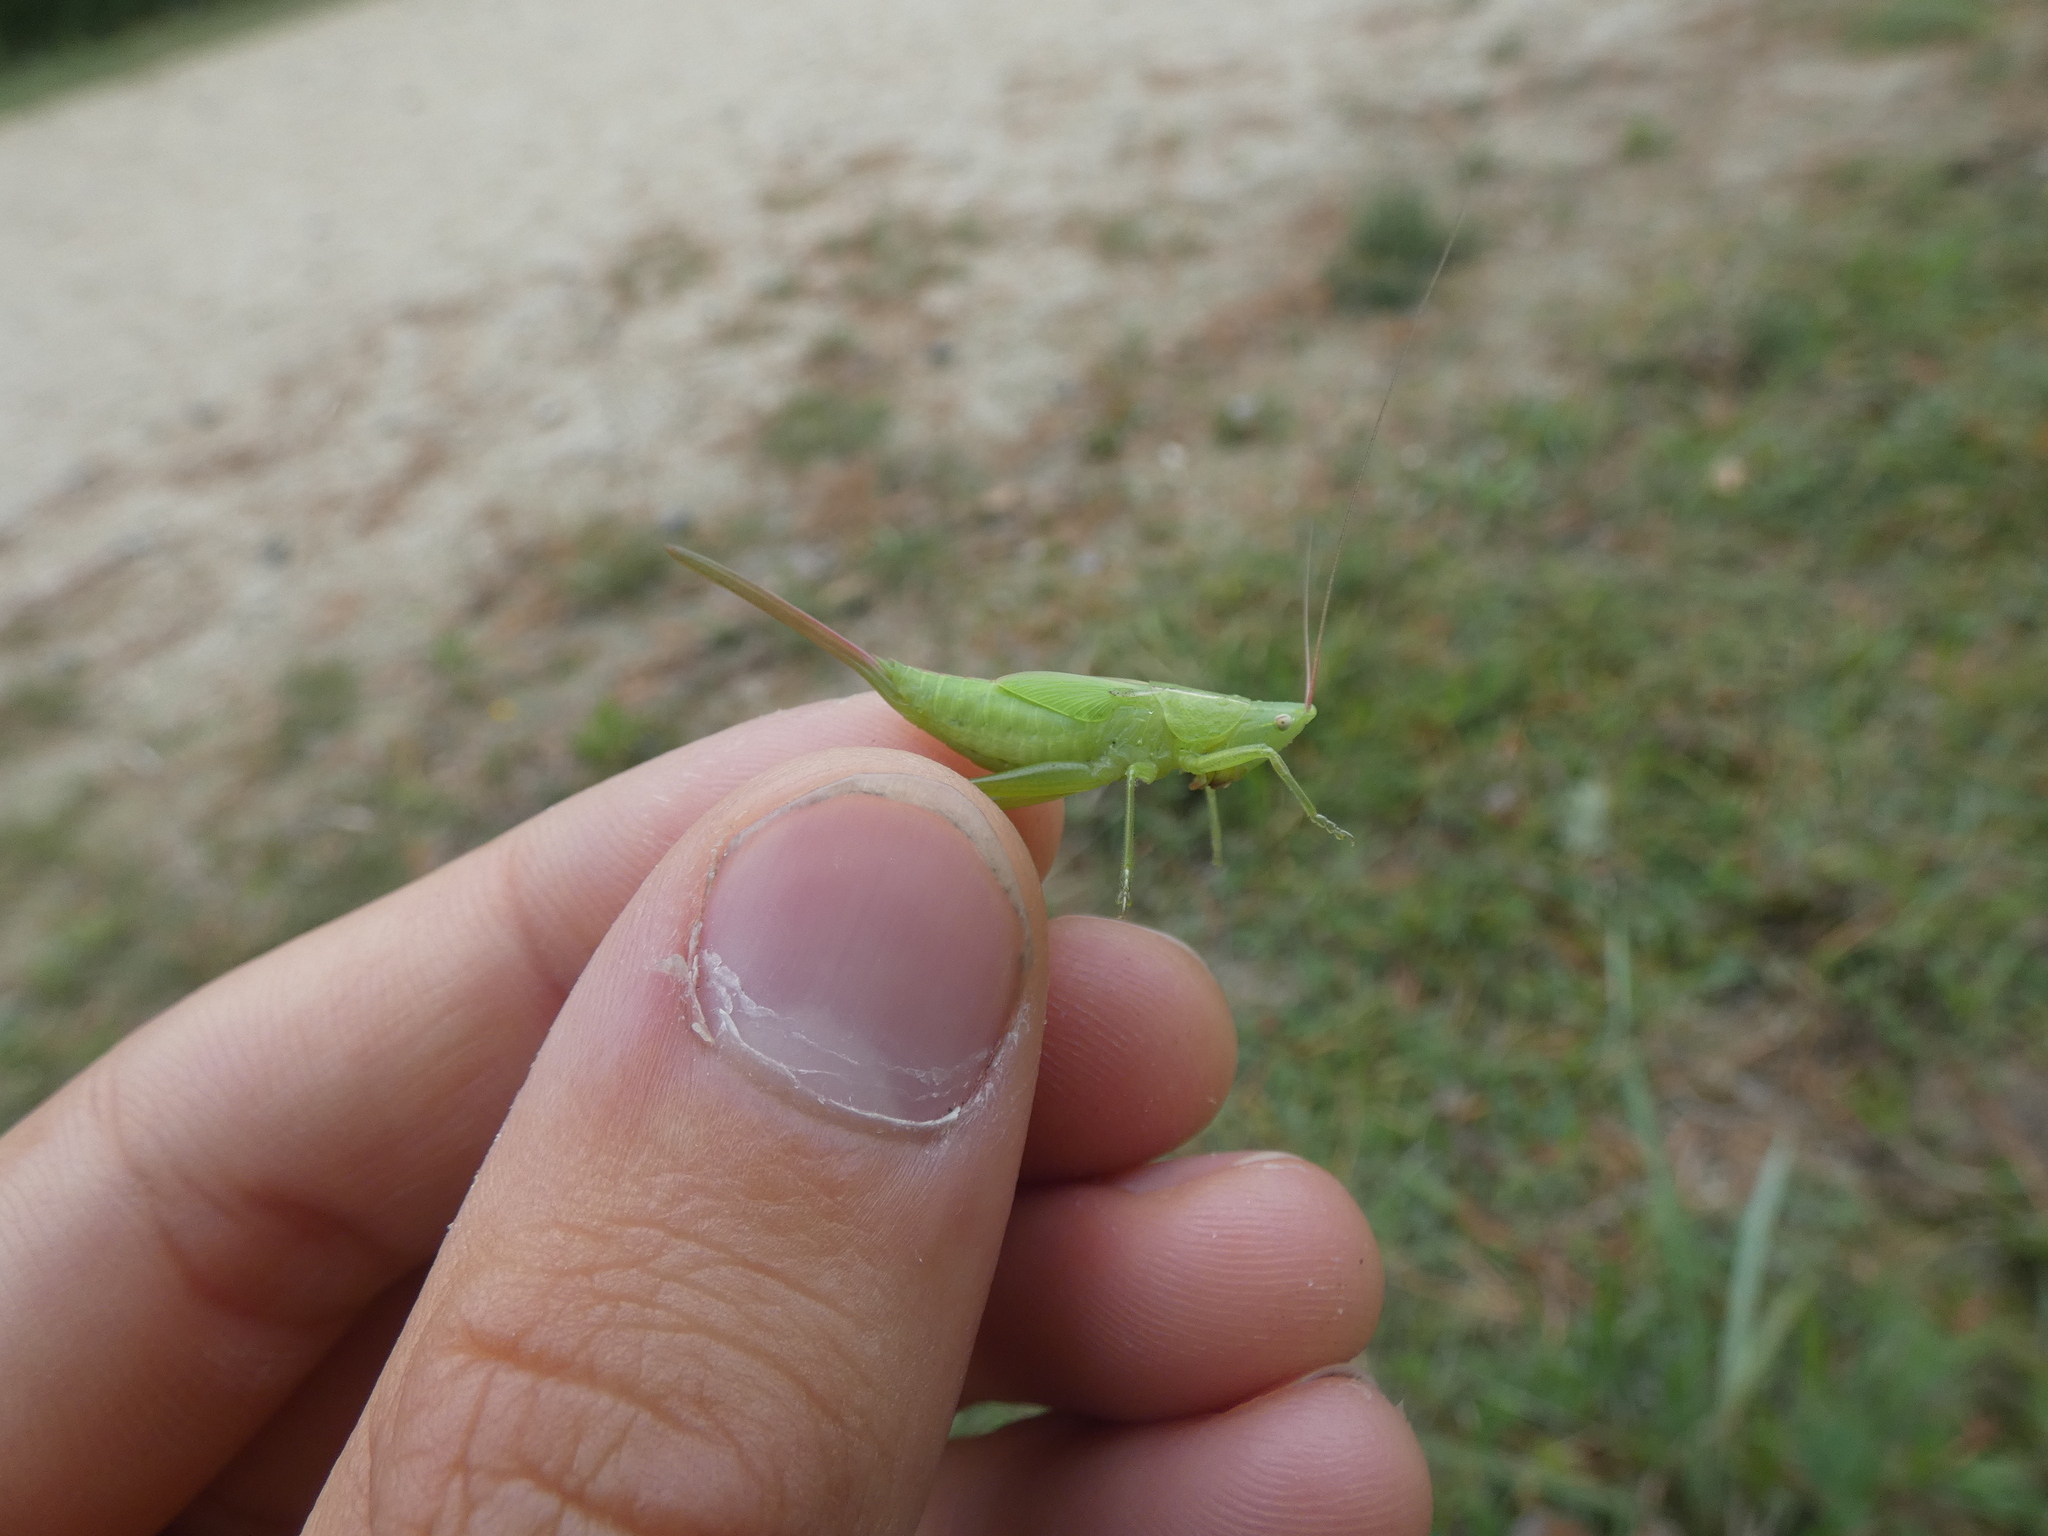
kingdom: Animalia
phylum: Arthropoda
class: Insecta
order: Orthoptera
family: Tettigoniidae
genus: Ruspolia
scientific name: Ruspolia nitidula
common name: Large conehead
